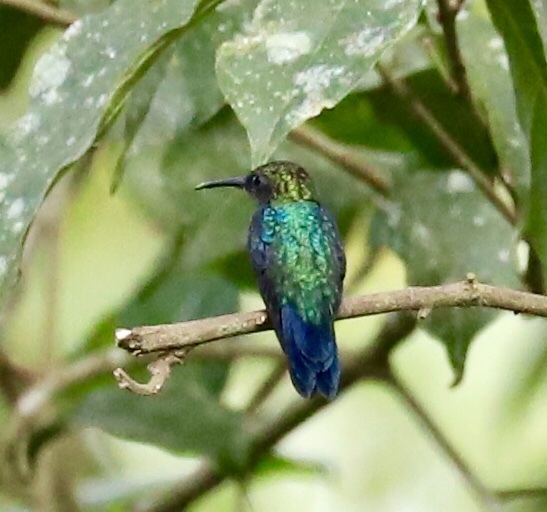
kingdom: Animalia
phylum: Chordata
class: Aves
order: Apodiformes
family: Trochilidae
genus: Thalurania
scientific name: Thalurania colombica
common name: Crowned woodnymph
